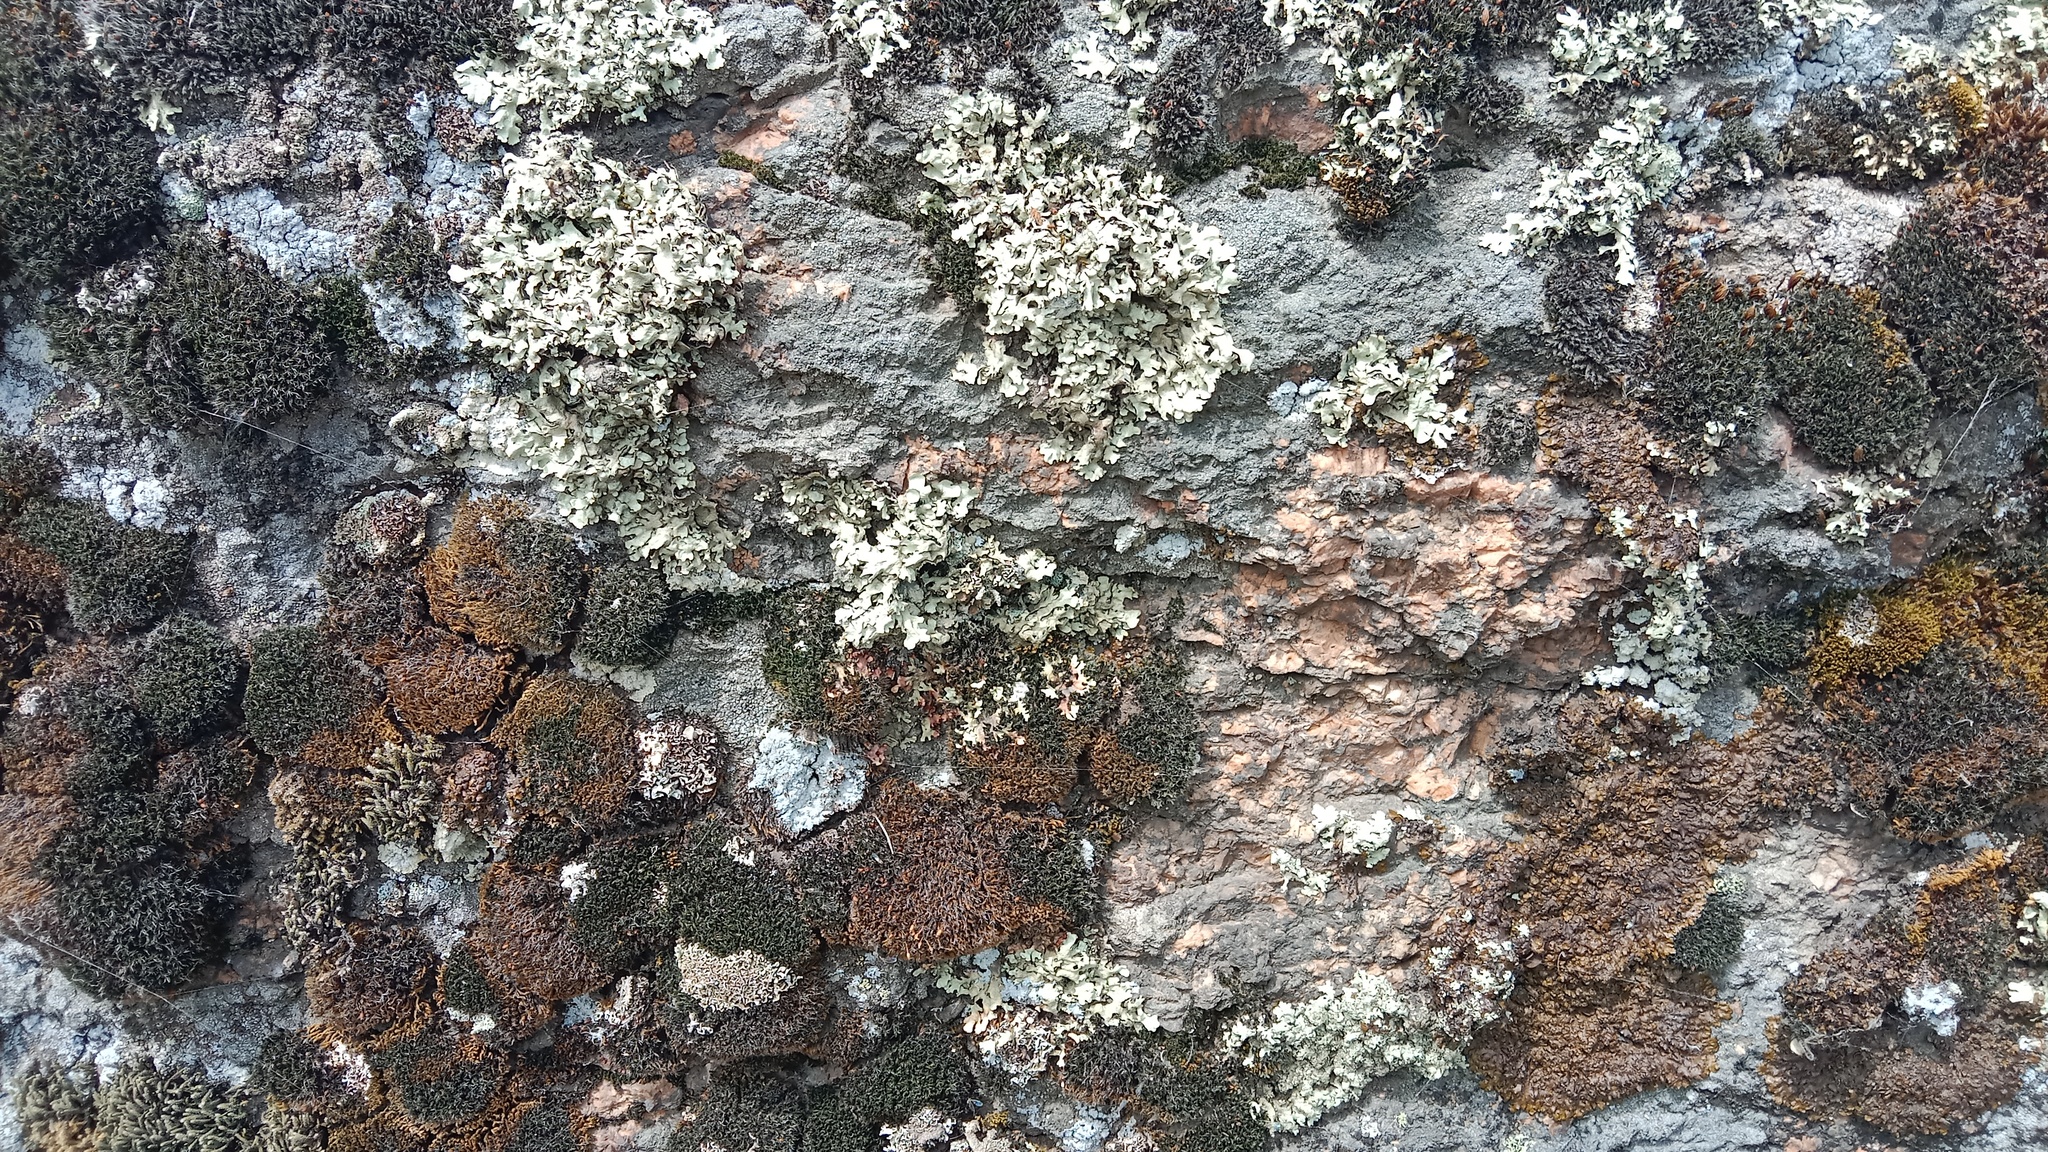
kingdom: Fungi
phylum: Ascomycota
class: Lecanoromycetes
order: Lecanorales
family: Parmeliaceae
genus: Xanthoparmelia
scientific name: Xanthoparmelia stenophylla
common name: Shingled rock shield
